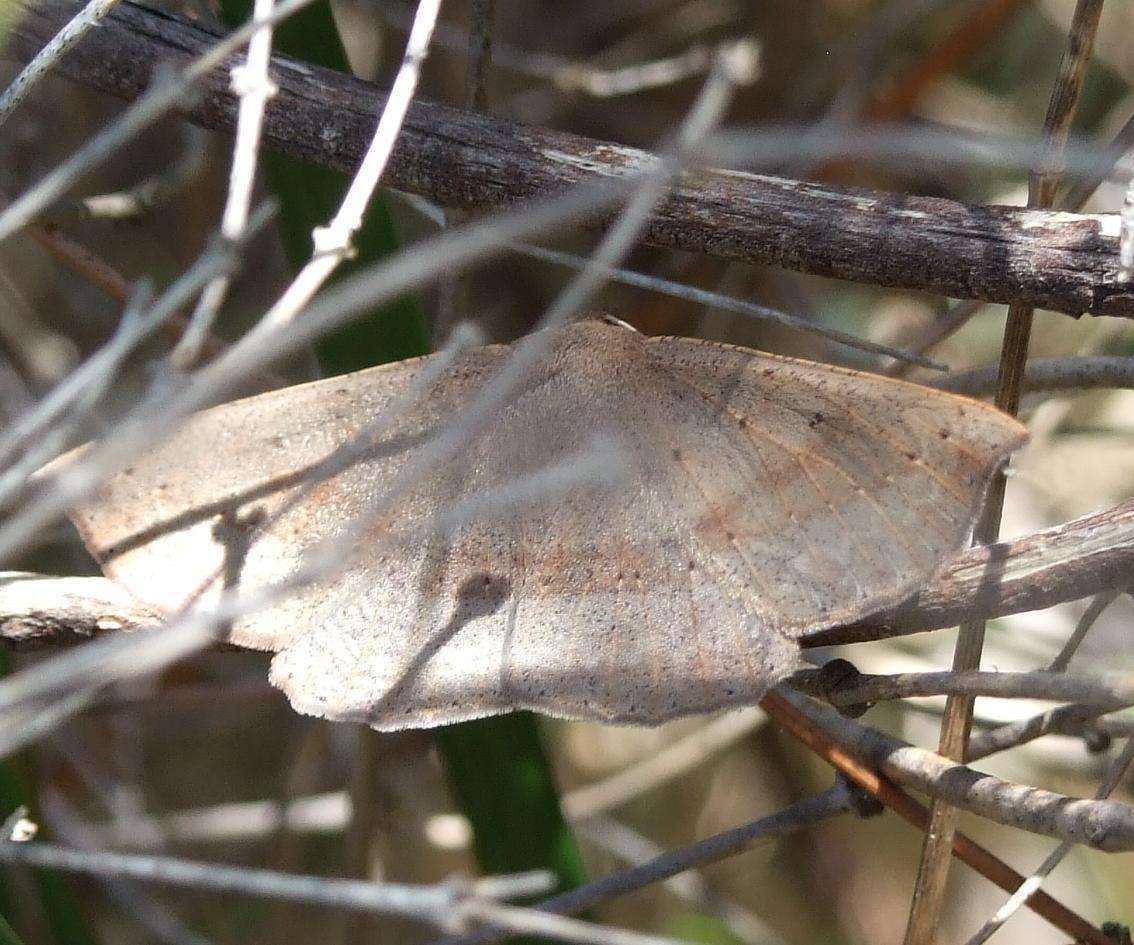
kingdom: Animalia
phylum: Arthropoda
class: Insecta
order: Lepidoptera
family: Geometridae
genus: Idiodes
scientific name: Idiodes apicata
